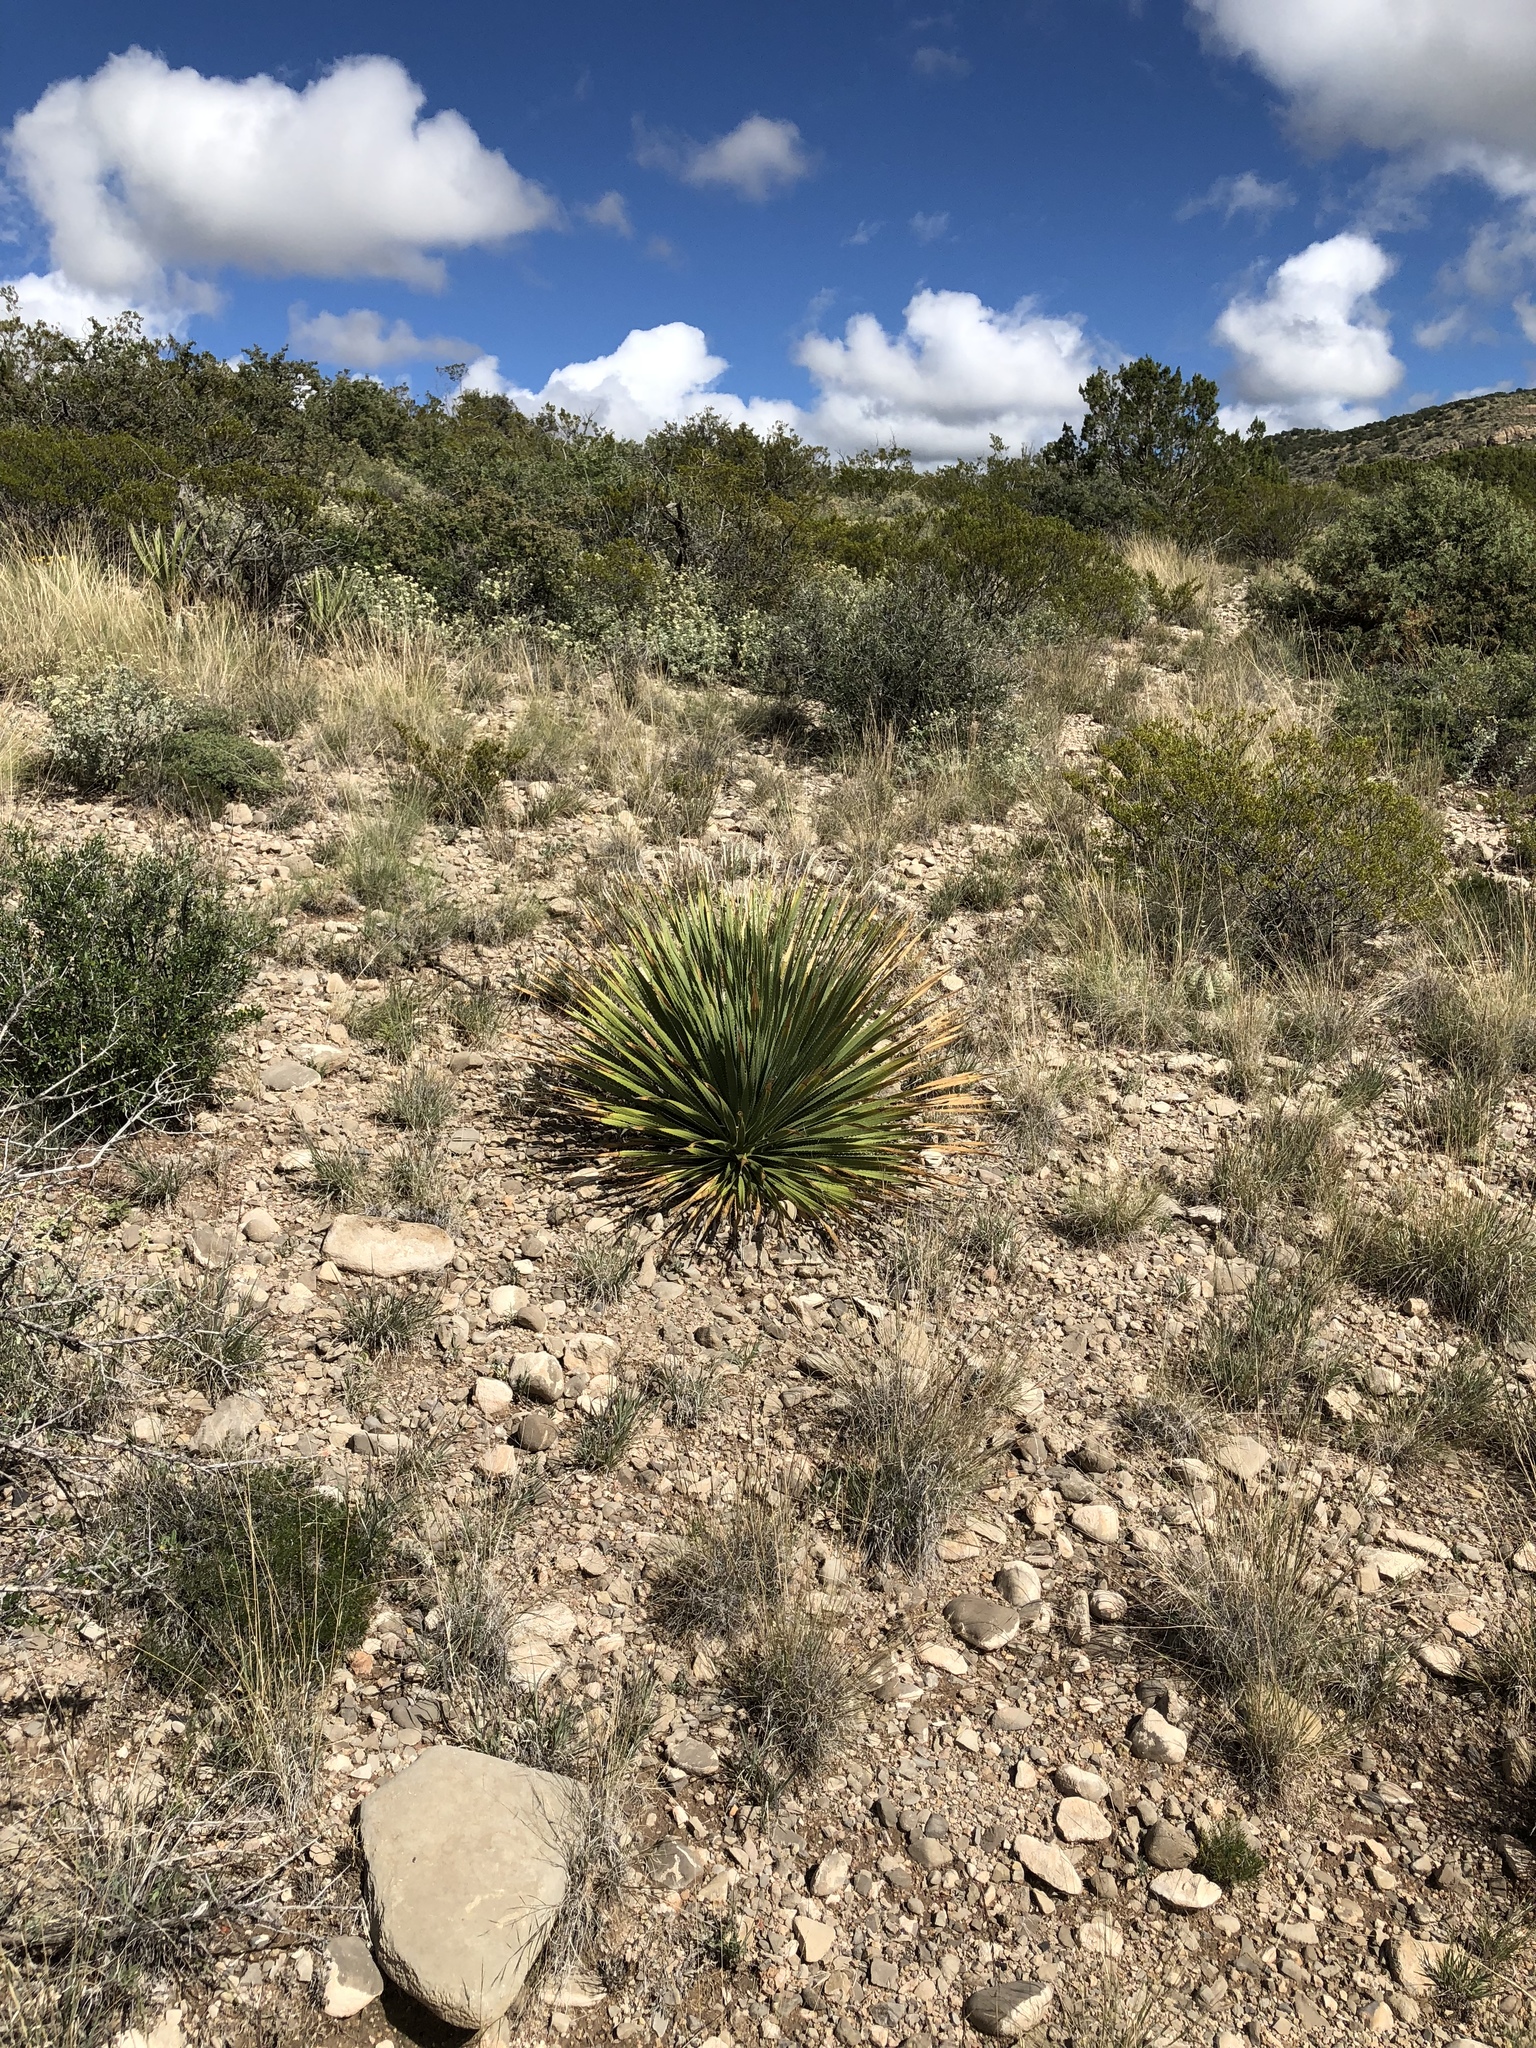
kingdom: Plantae
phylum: Tracheophyta
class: Liliopsida
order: Asparagales
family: Asparagaceae
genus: Dasylirion
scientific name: Dasylirion wheeleri
